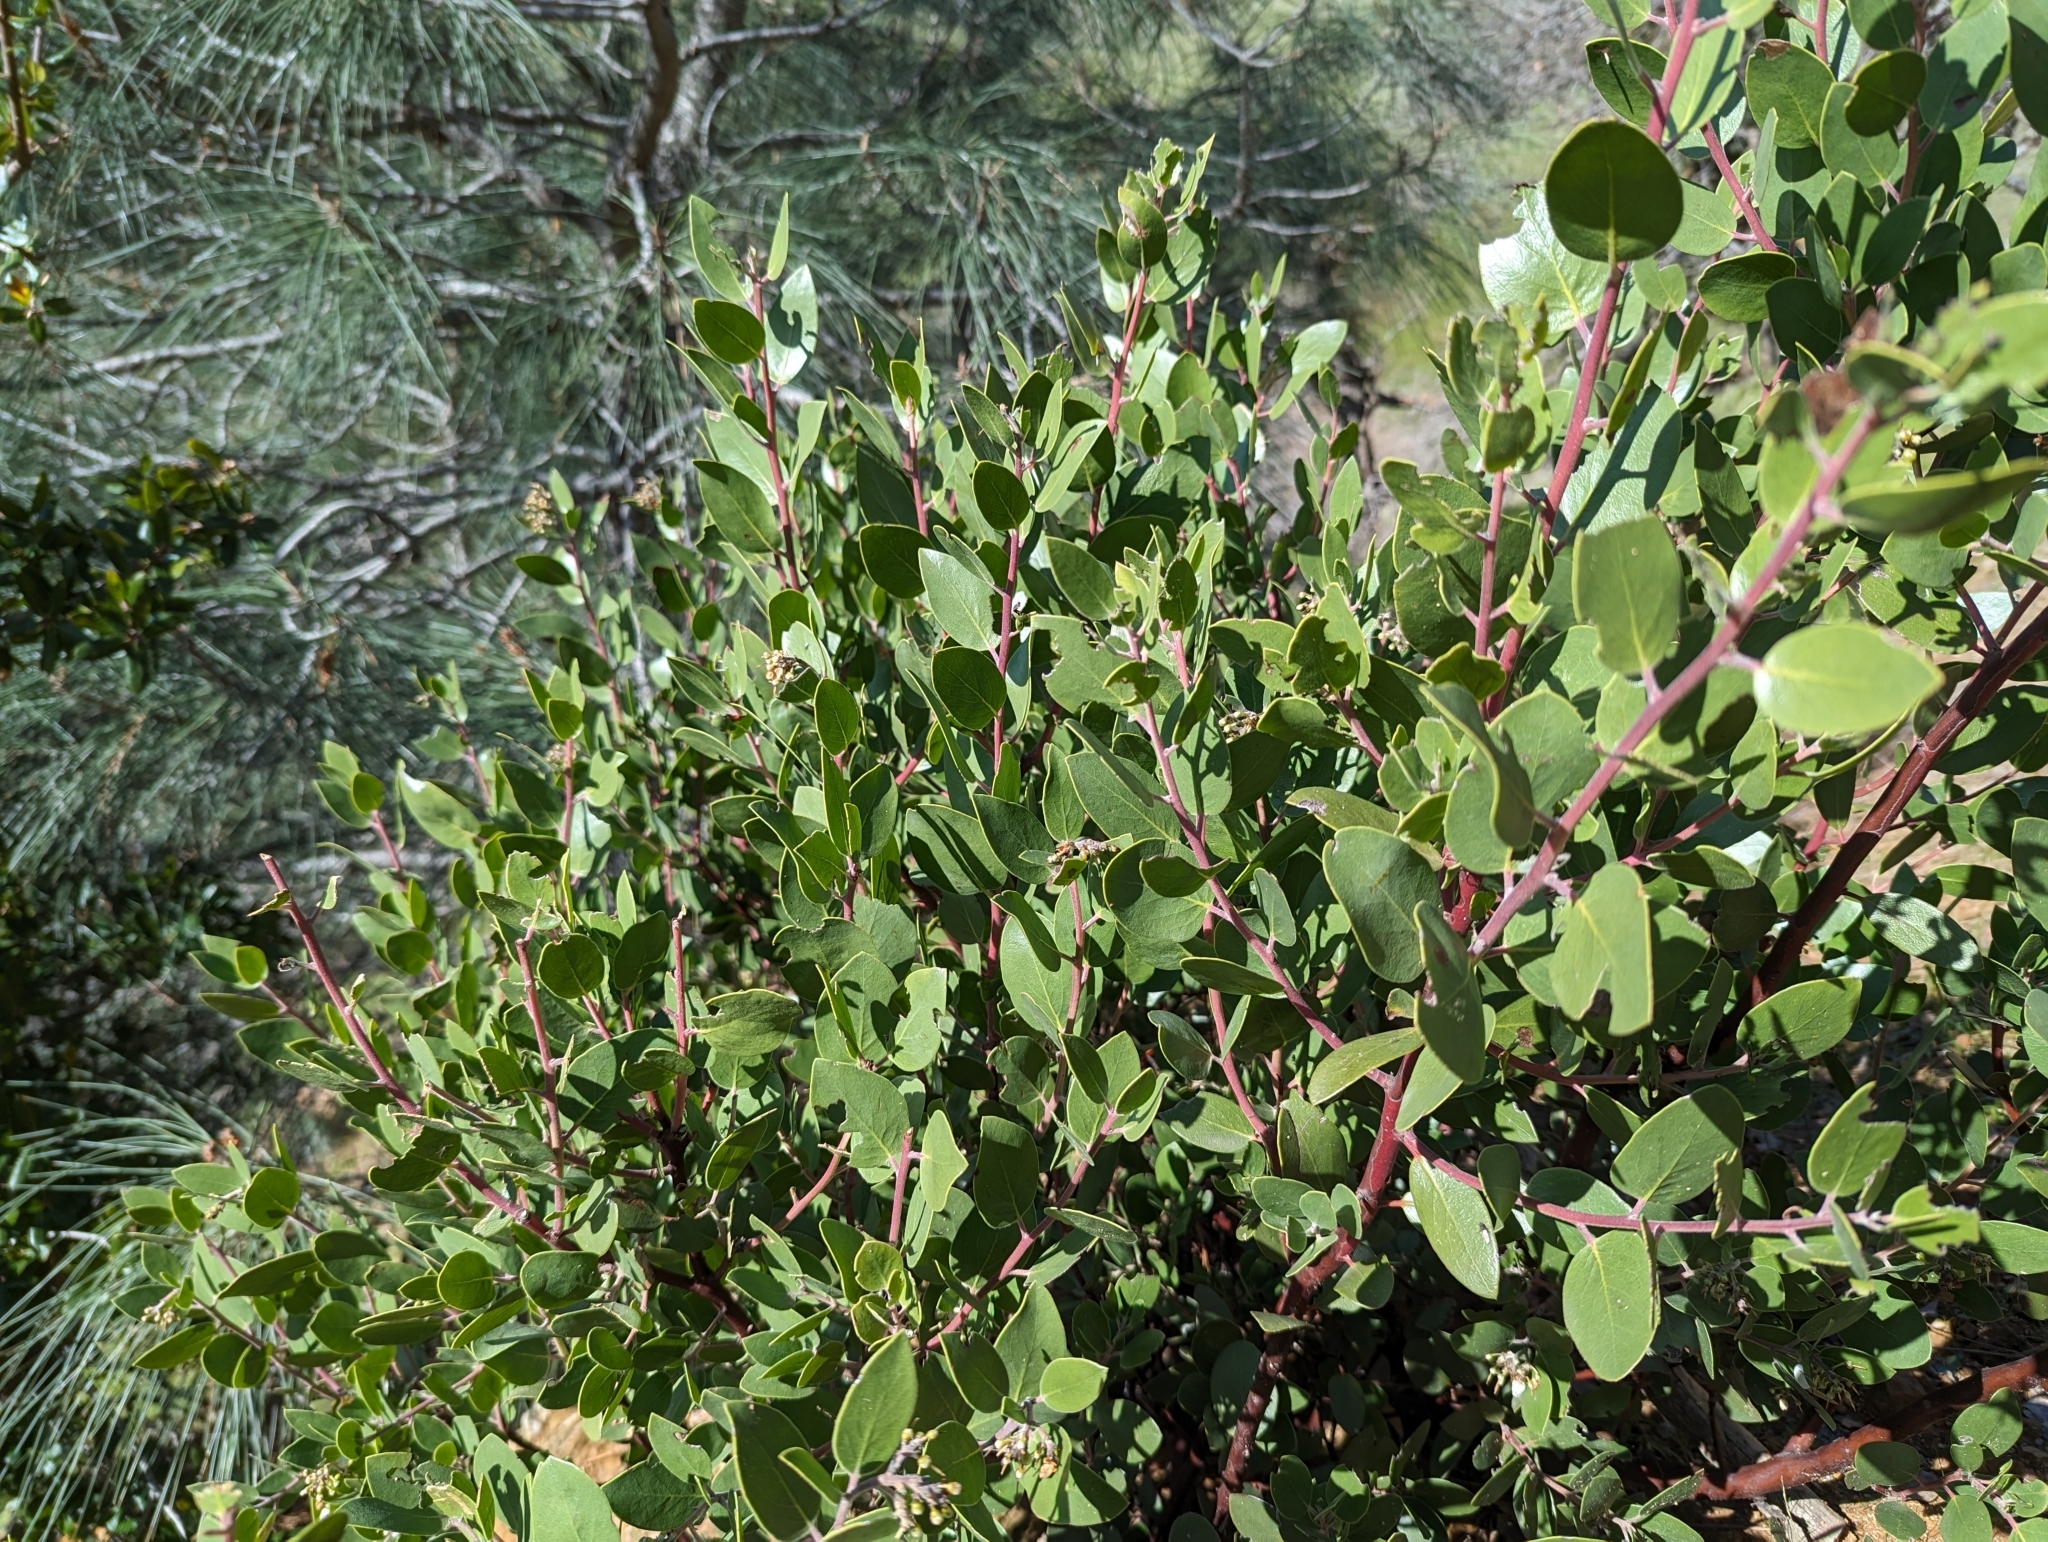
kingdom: Plantae
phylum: Tracheophyta
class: Magnoliopsida
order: Ericales
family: Ericaceae
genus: Arctostaphylos
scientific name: Arctostaphylos manzanita
